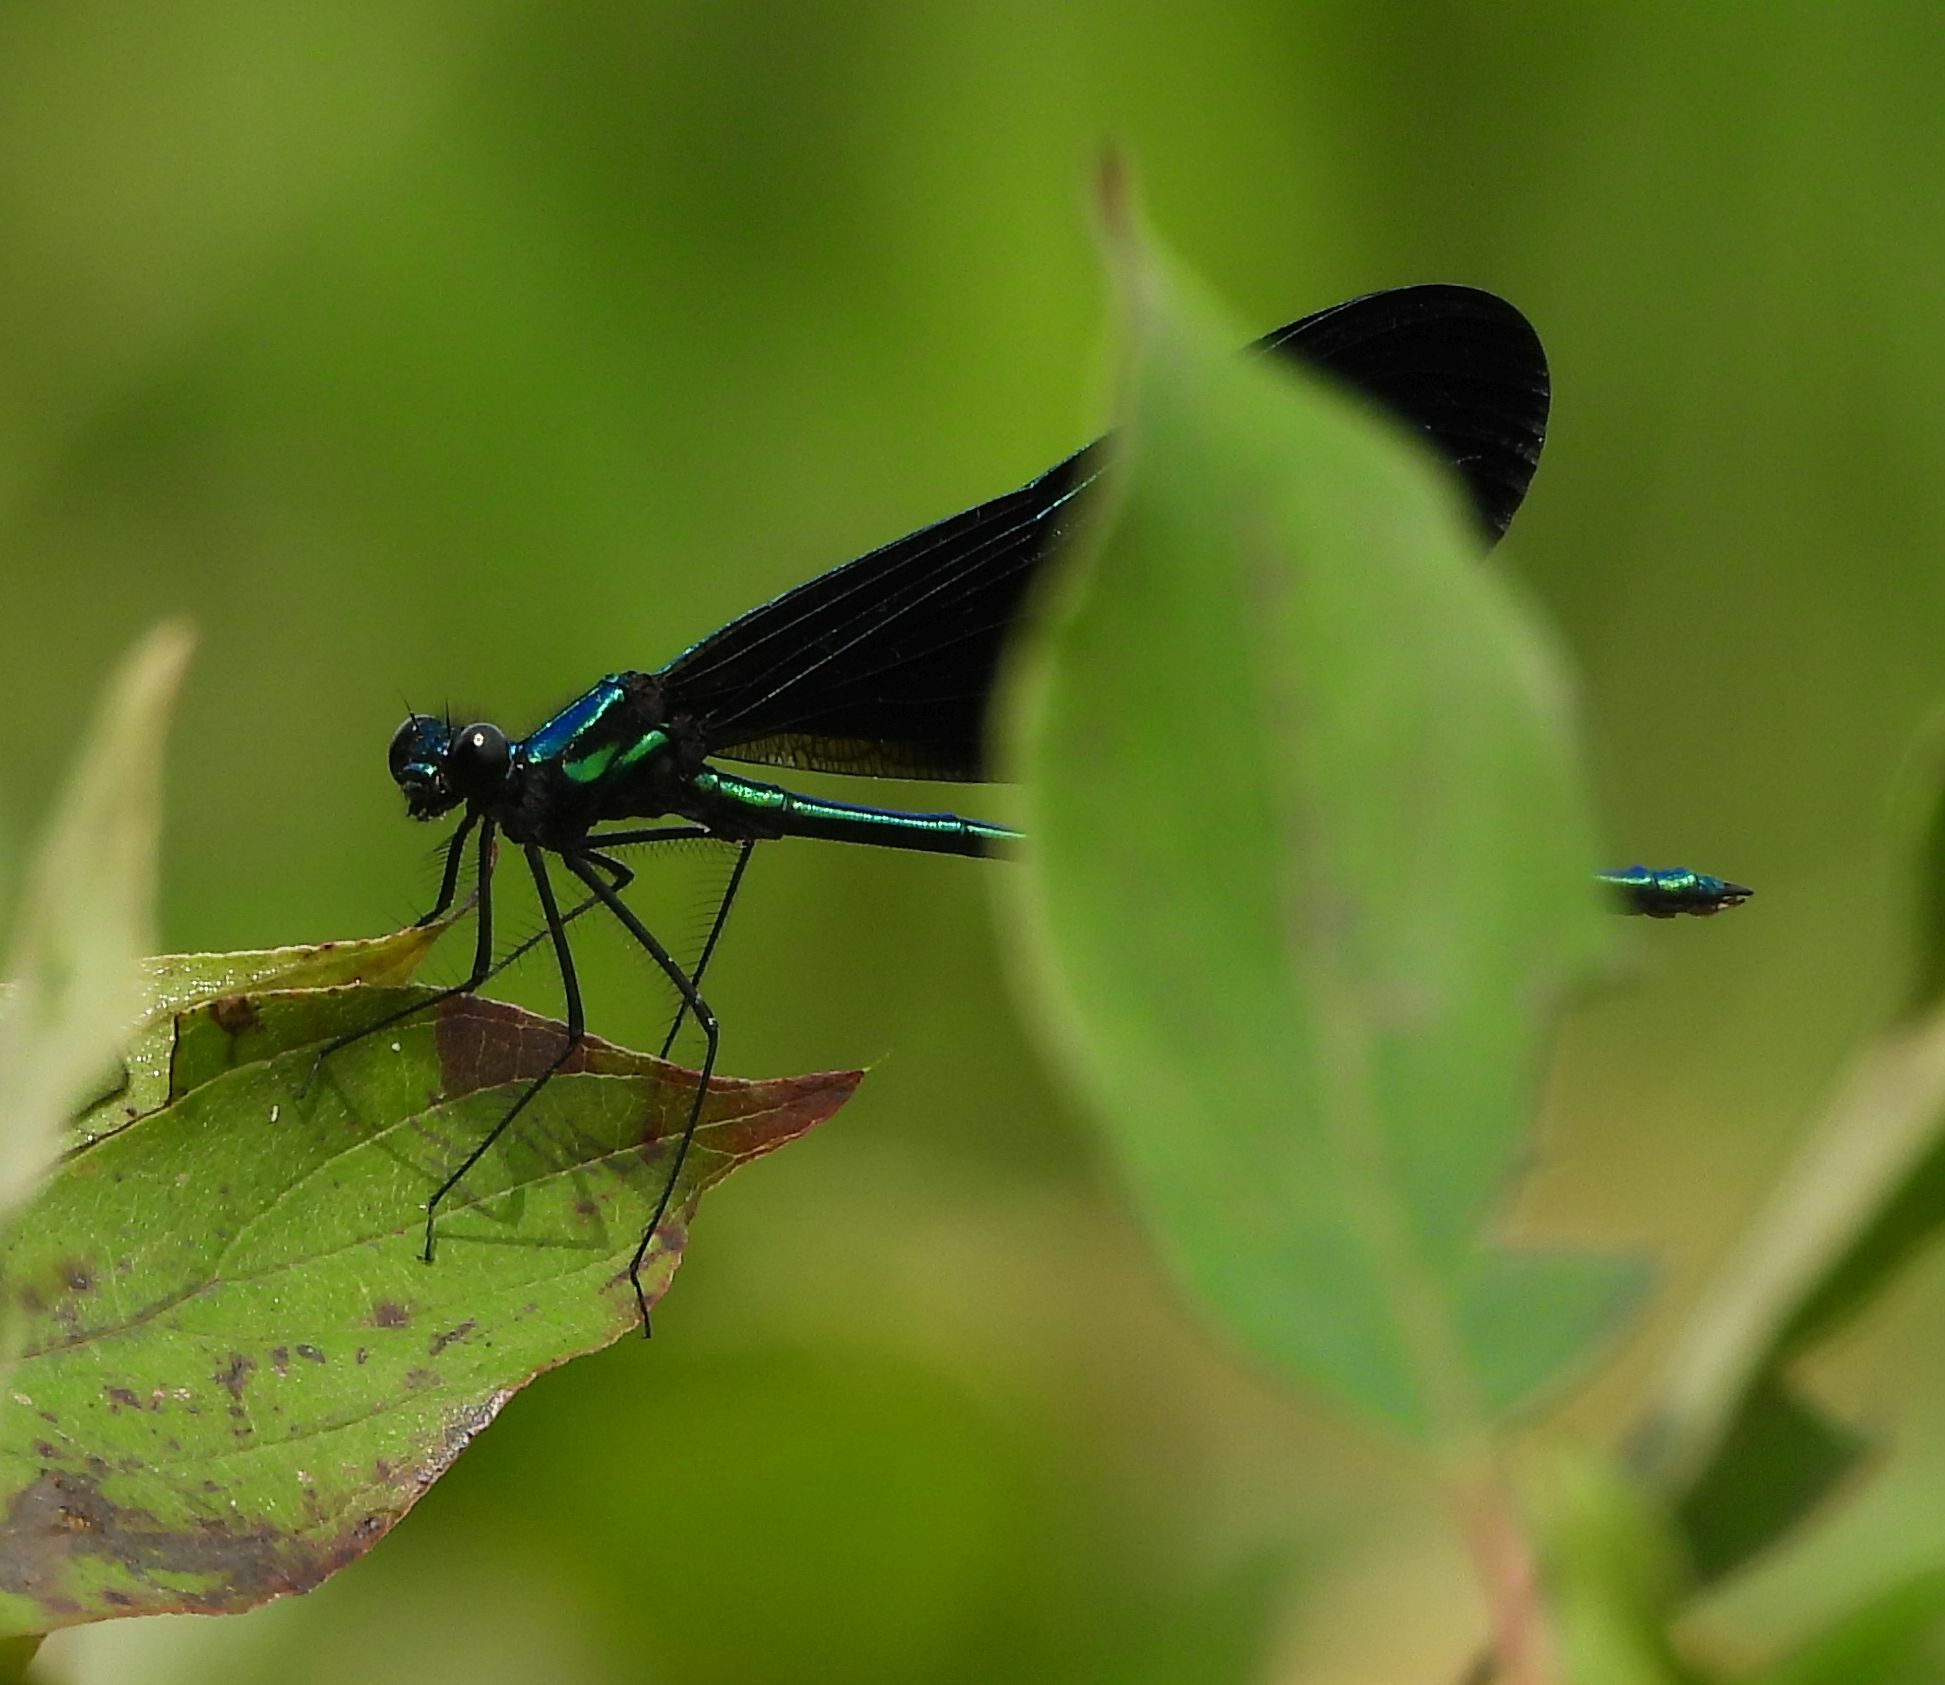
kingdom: Animalia
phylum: Arthropoda
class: Insecta
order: Odonata
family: Calopterygidae
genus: Calopteryx
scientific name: Calopteryx maculata
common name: Ebony jewelwing
